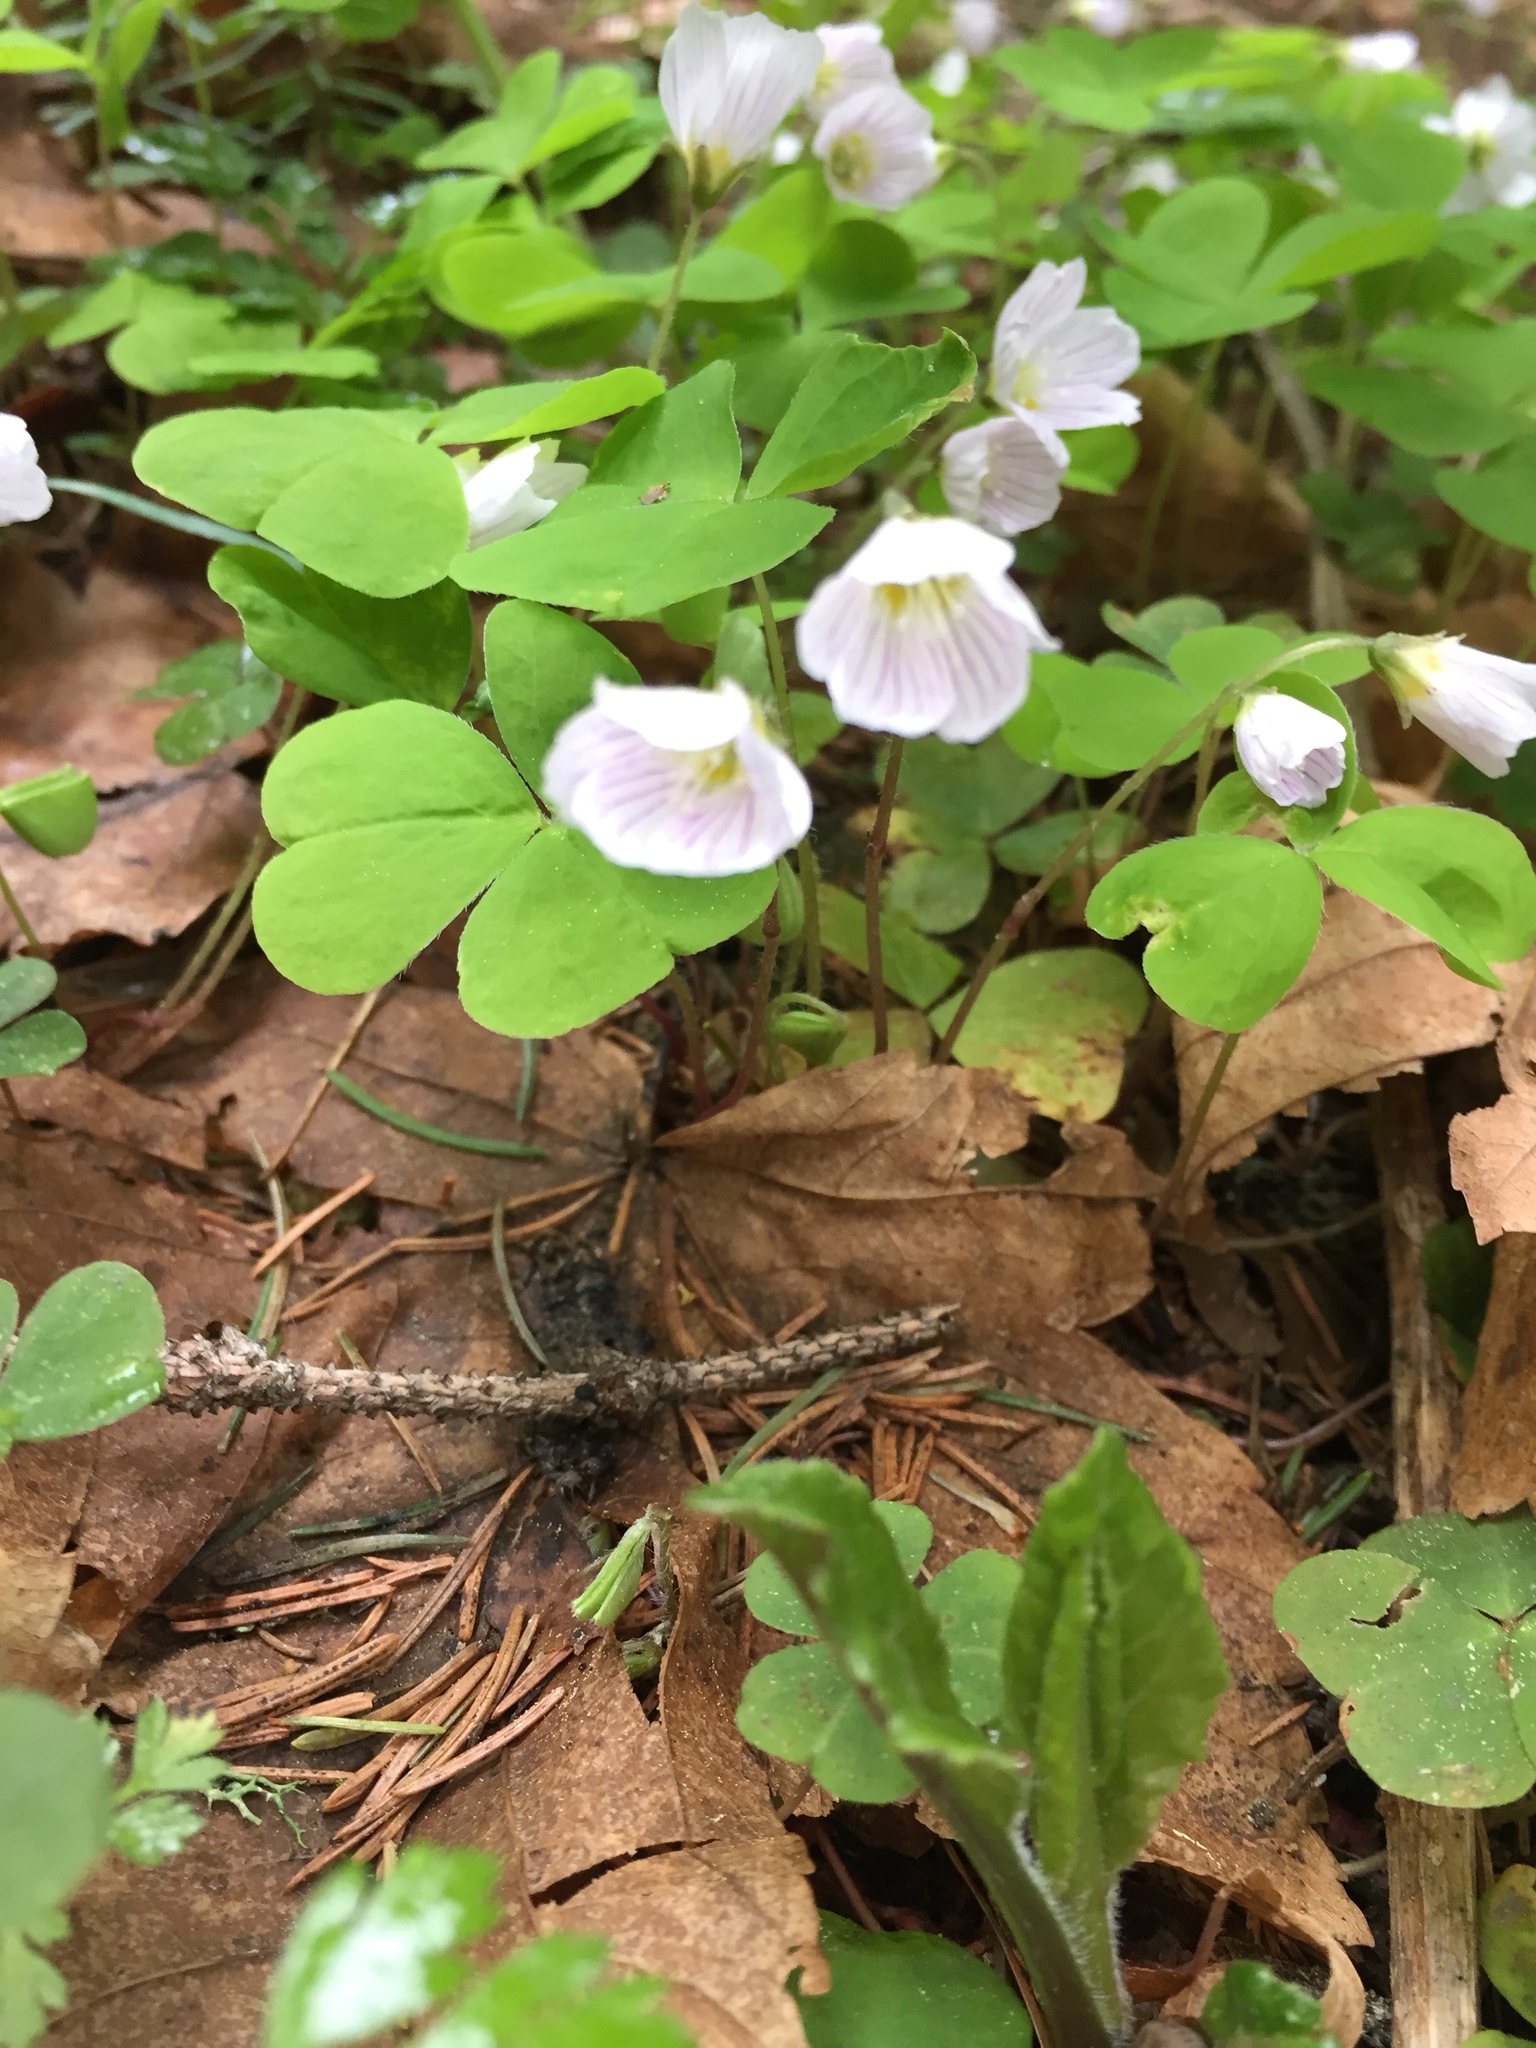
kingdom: Plantae
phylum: Tracheophyta
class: Magnoliopsida
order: Oxalidales
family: Oxalidaceae
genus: Oxalis
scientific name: Oxalis acetosella
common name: Wood-sorrel
